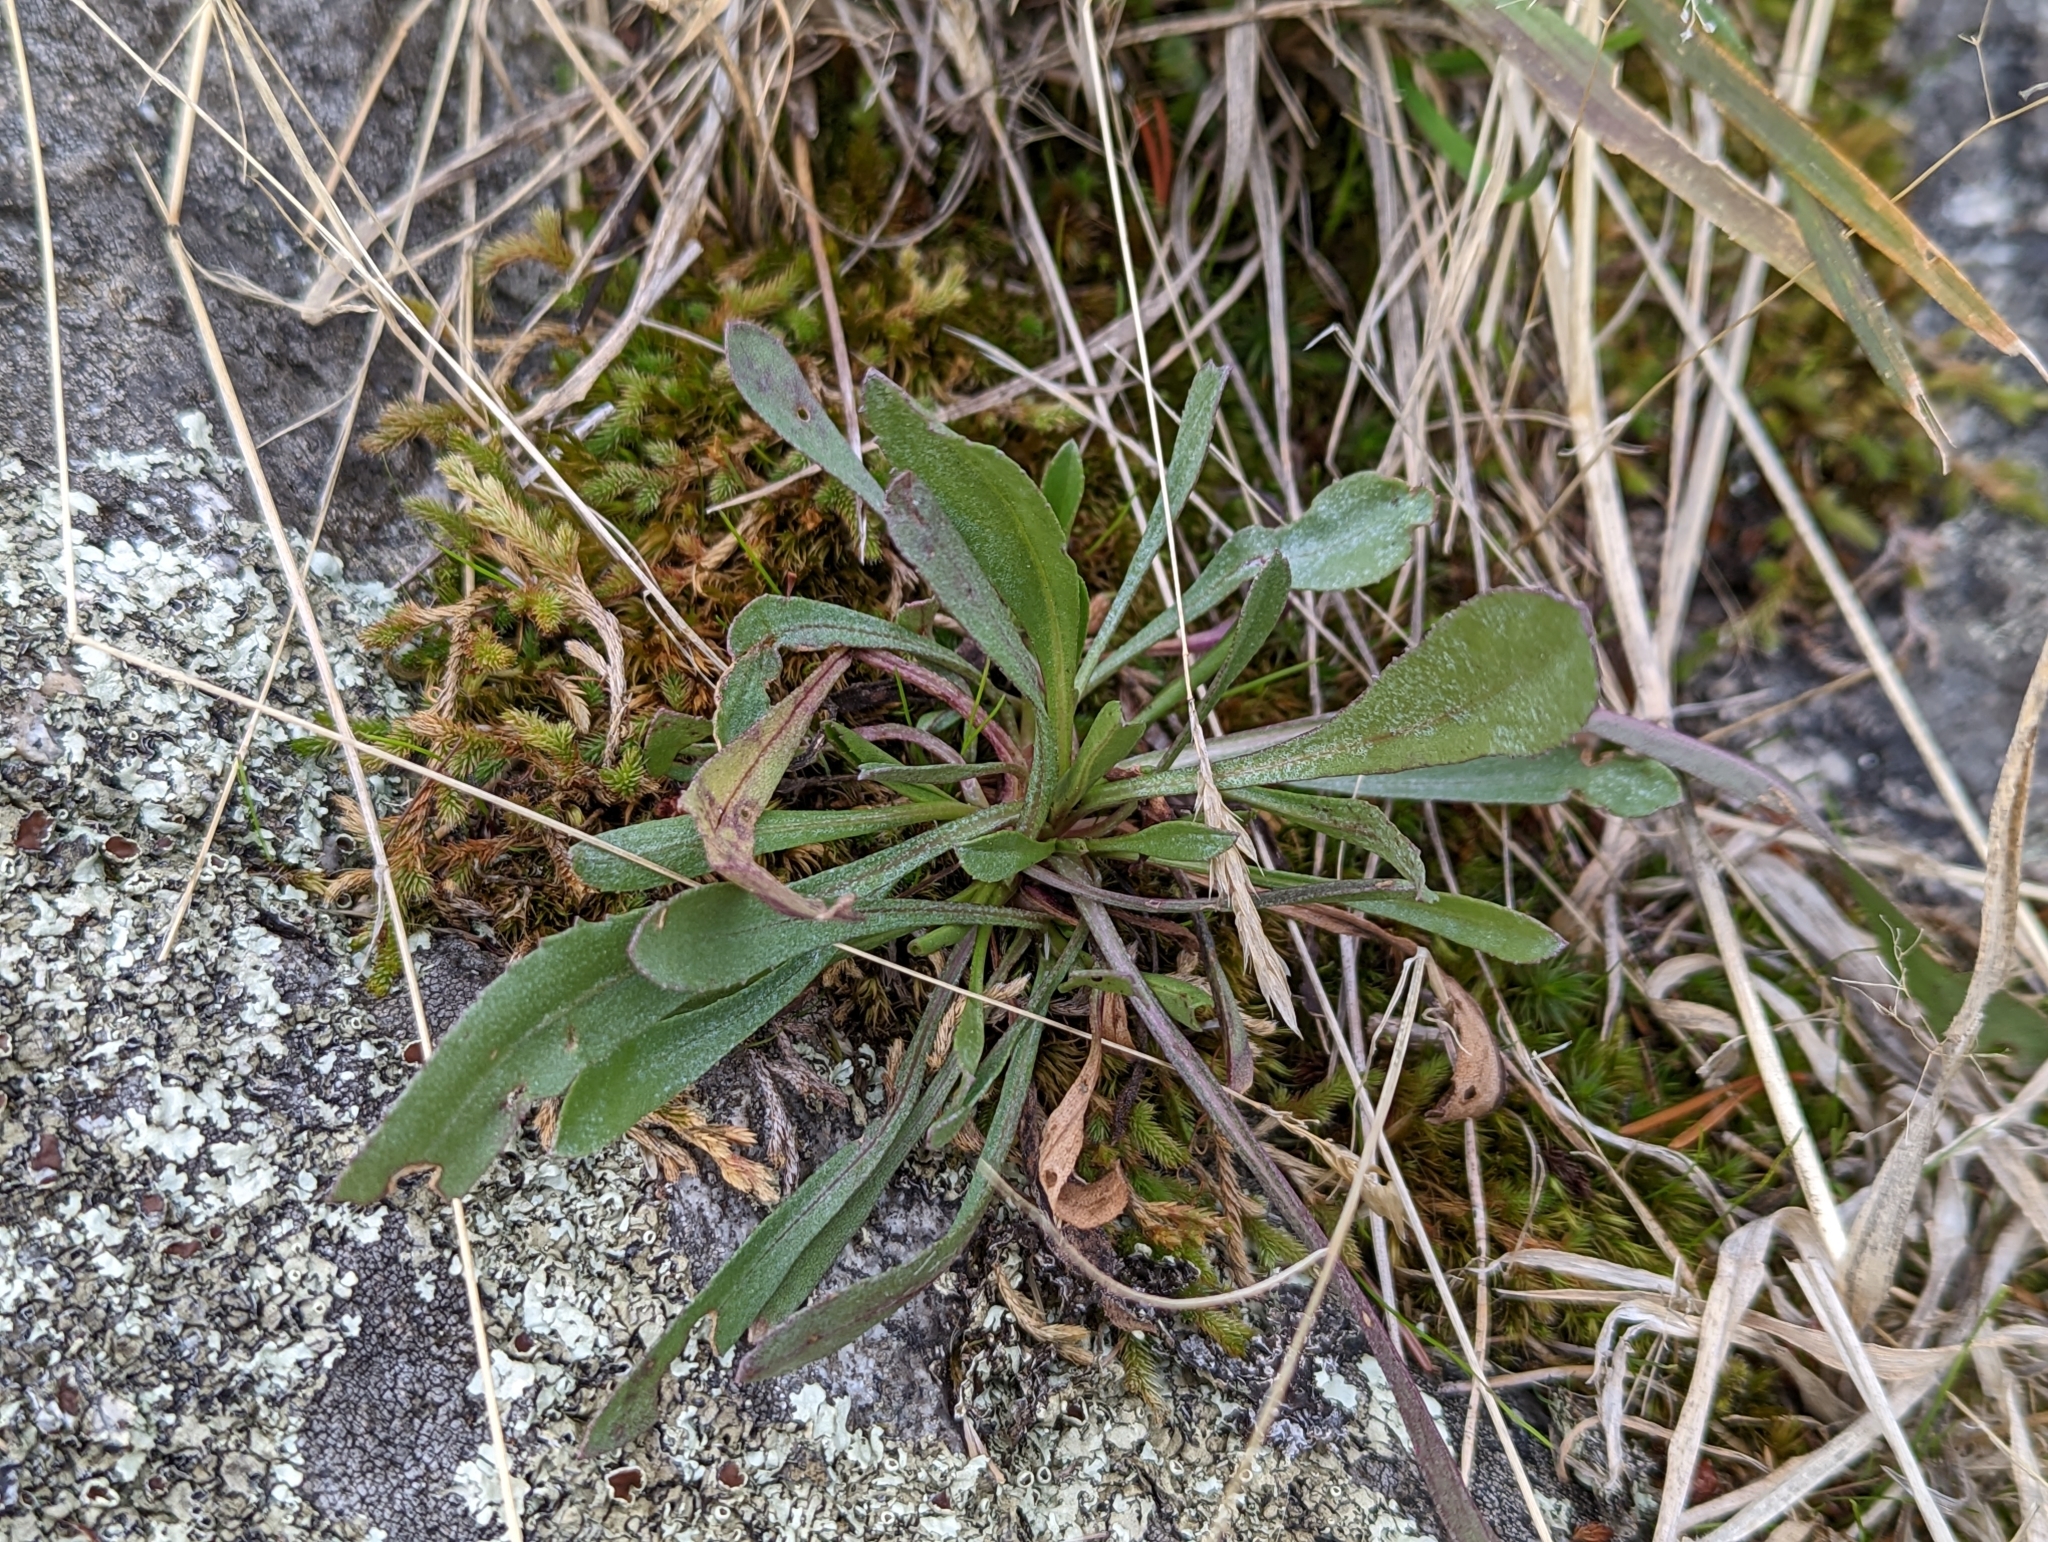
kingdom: Plantae
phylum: Tracheophyta
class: Magnoliopsida
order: Asterales
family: Asteraceae
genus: Grindelia
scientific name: Grindelia hirsutula
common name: Hairy gumweed
